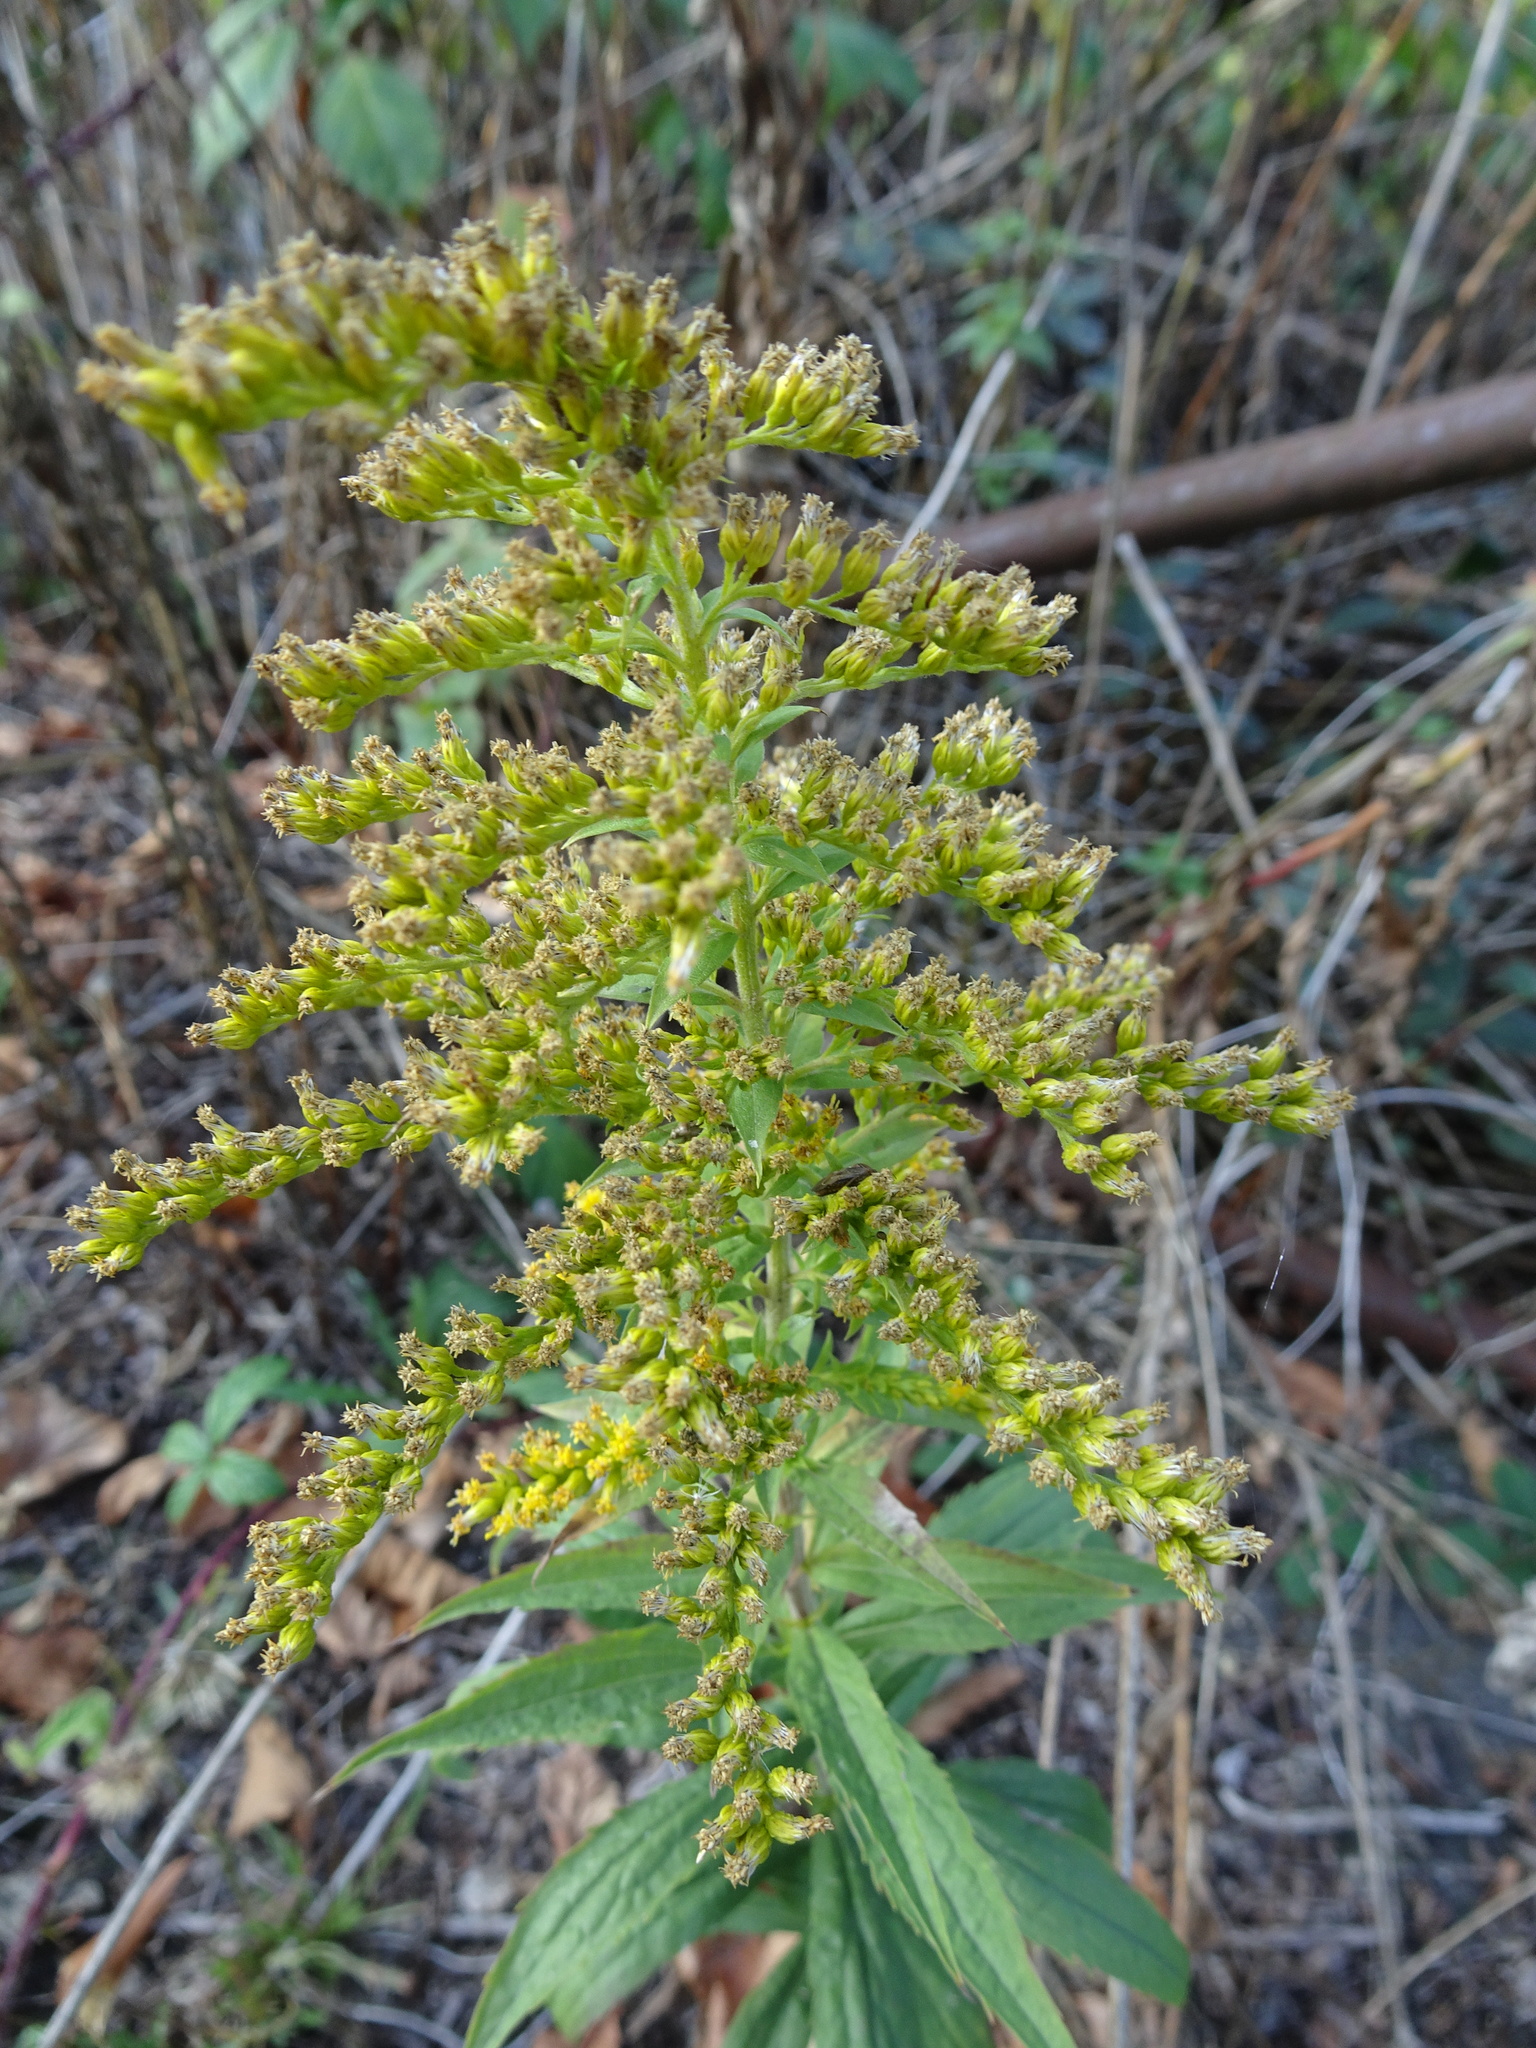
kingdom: Plantae
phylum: Tracheophyta
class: Magnoliopsida
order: Asterales
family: Asteraceae
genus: Solidago
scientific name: Solidago canadensis
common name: Canada goldenrod
